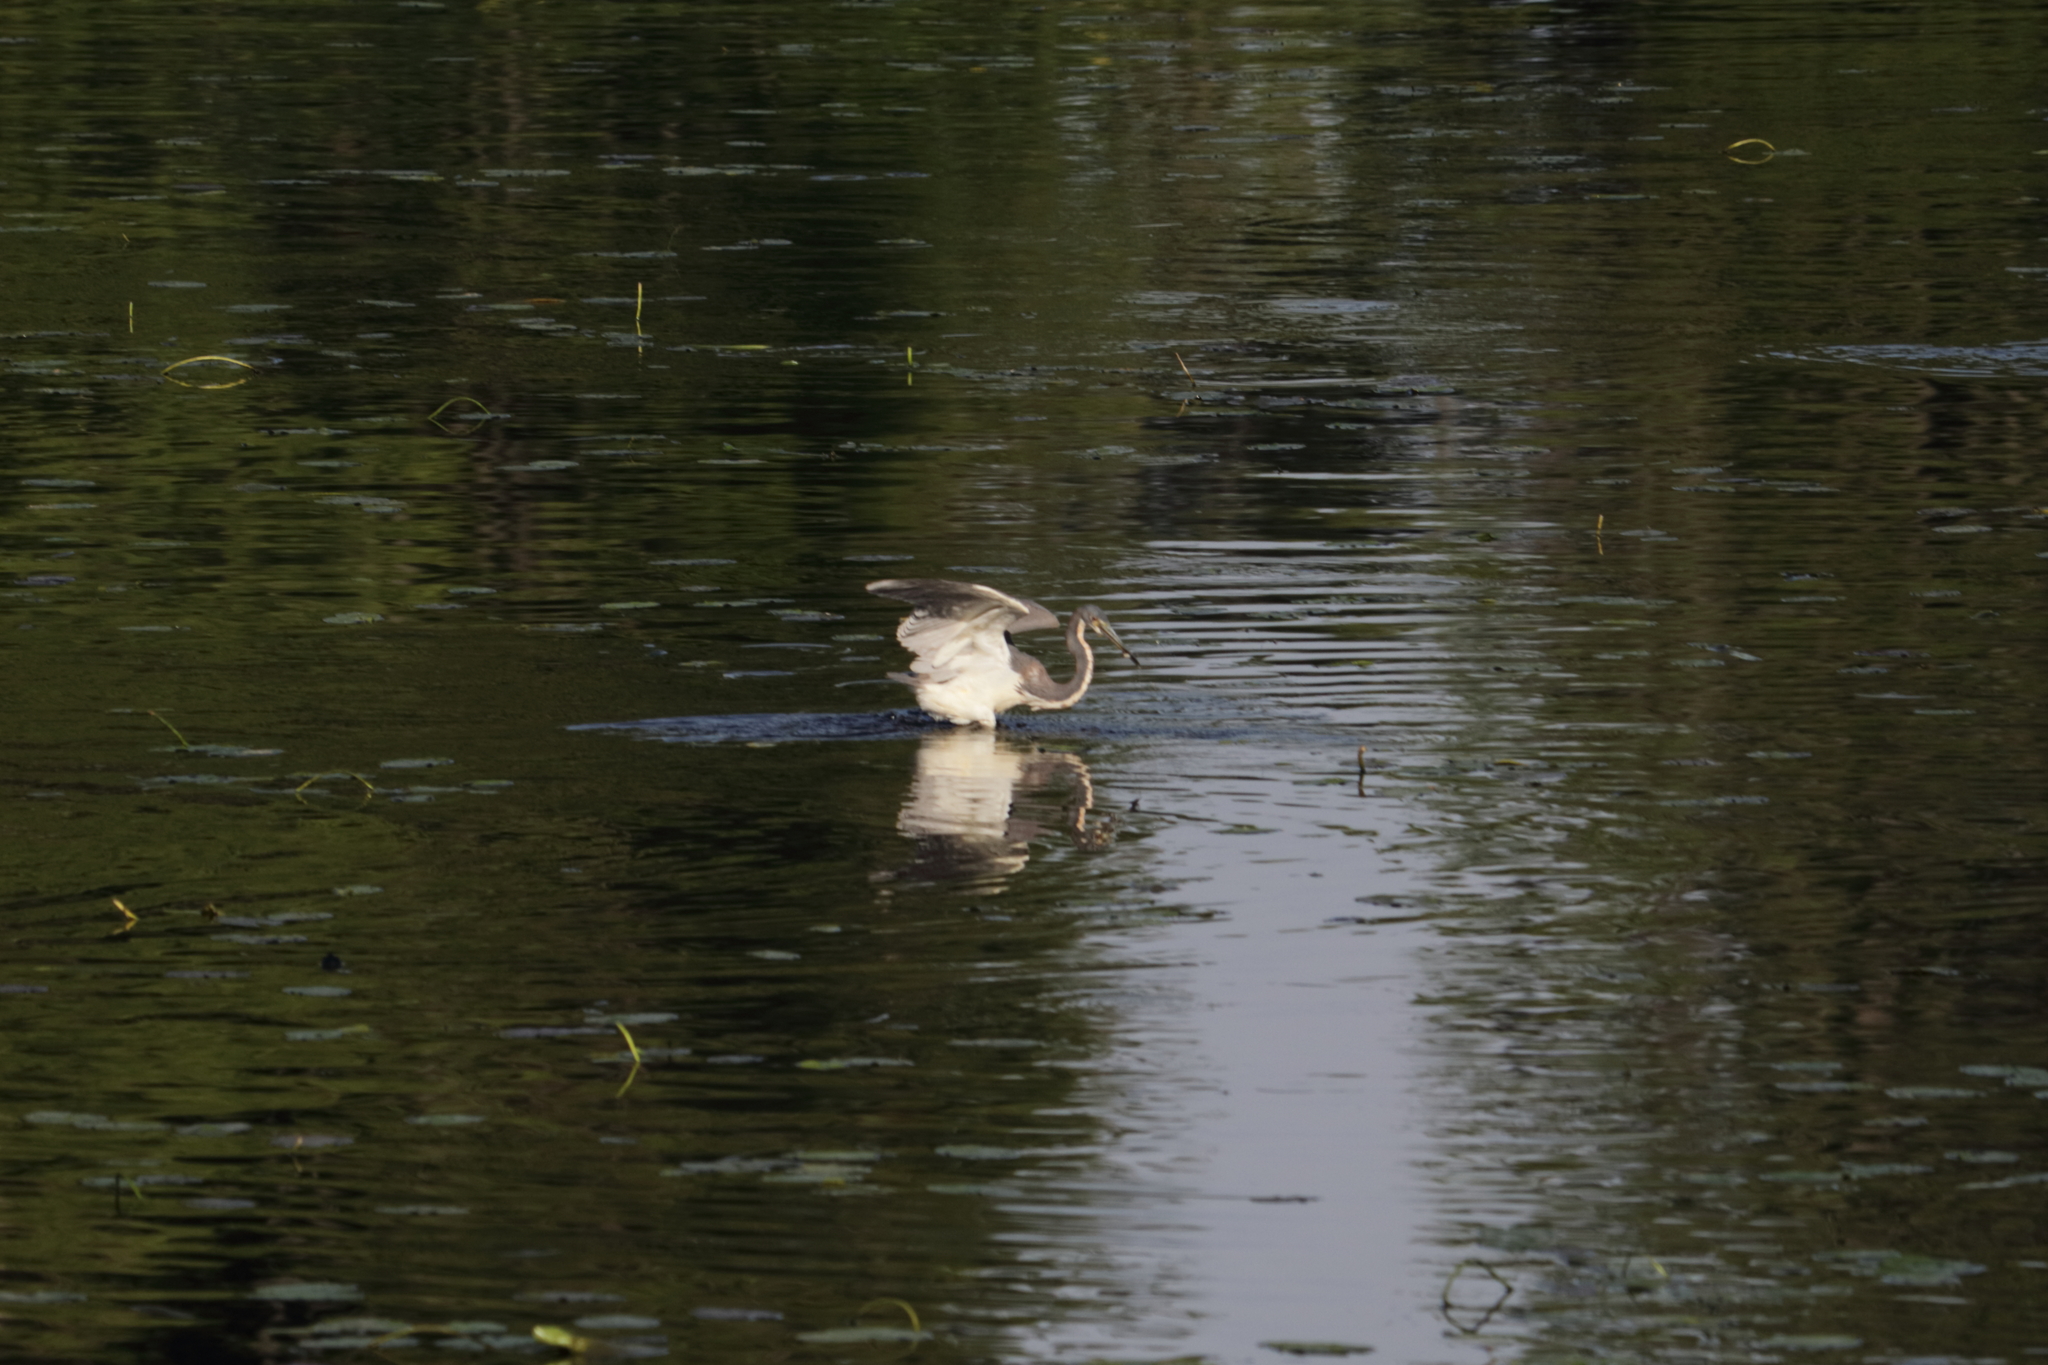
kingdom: Animalia
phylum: Chordata
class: Aves
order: Pelecaniformes
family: Ardeidae
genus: Egretta
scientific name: Egretta tricolor
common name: Tricolored heron
